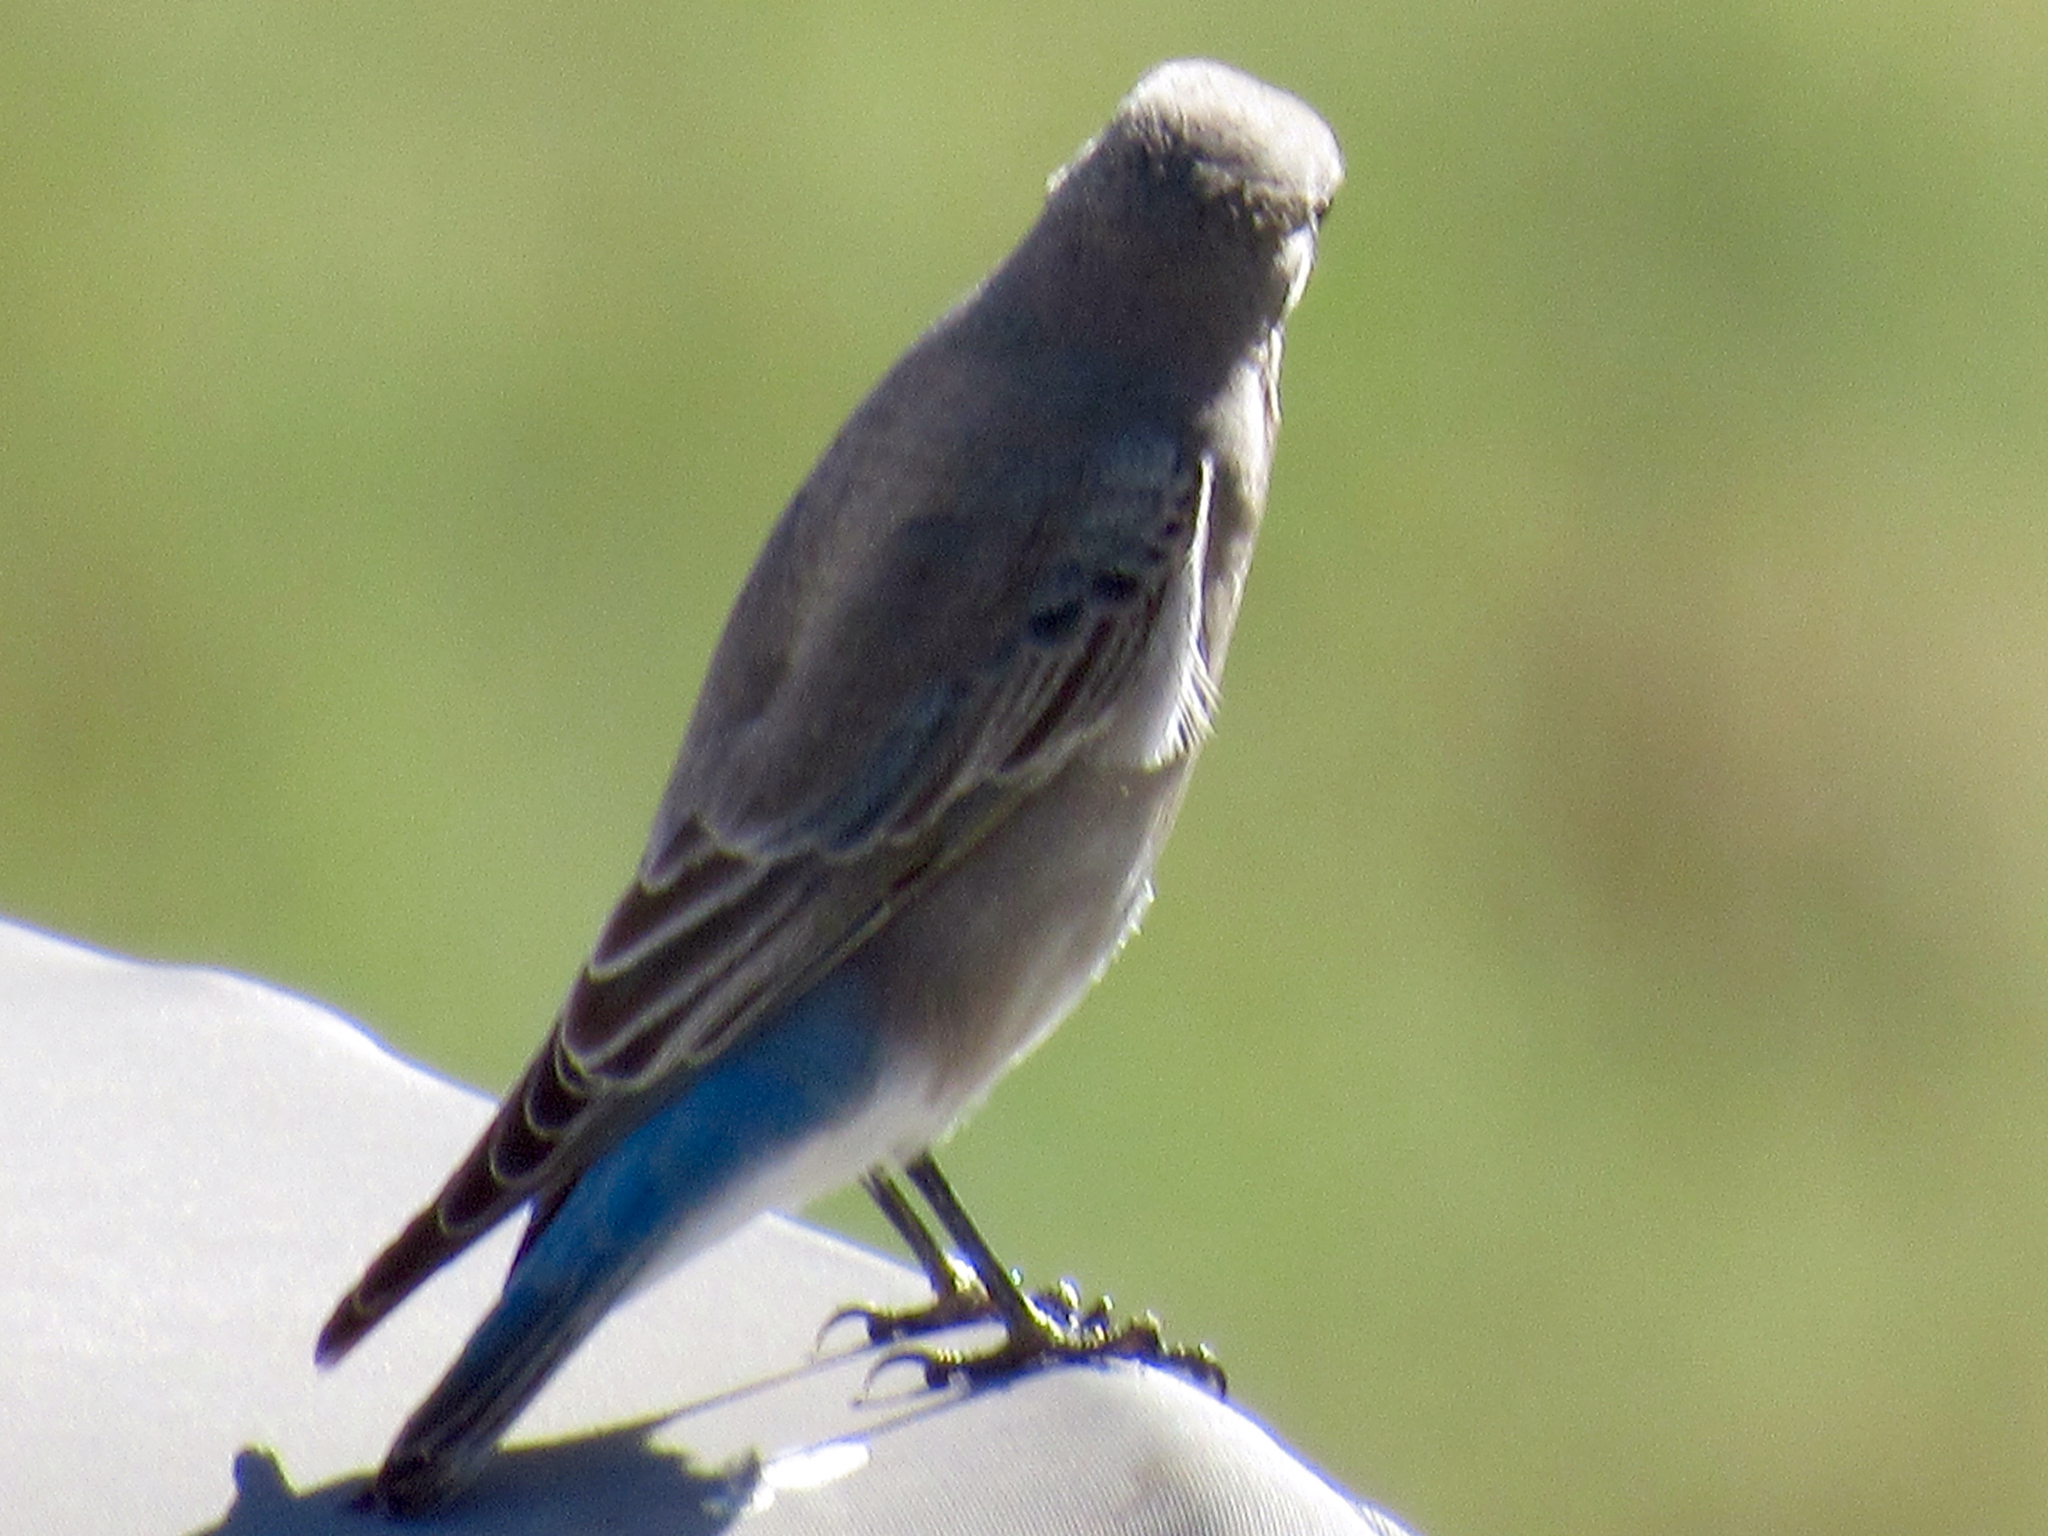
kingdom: Animalia
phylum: Chordata
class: Aves
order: Passeriformes
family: Turdidae
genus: Sialia
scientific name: Sialia currucoides
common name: Mountain bluebird
